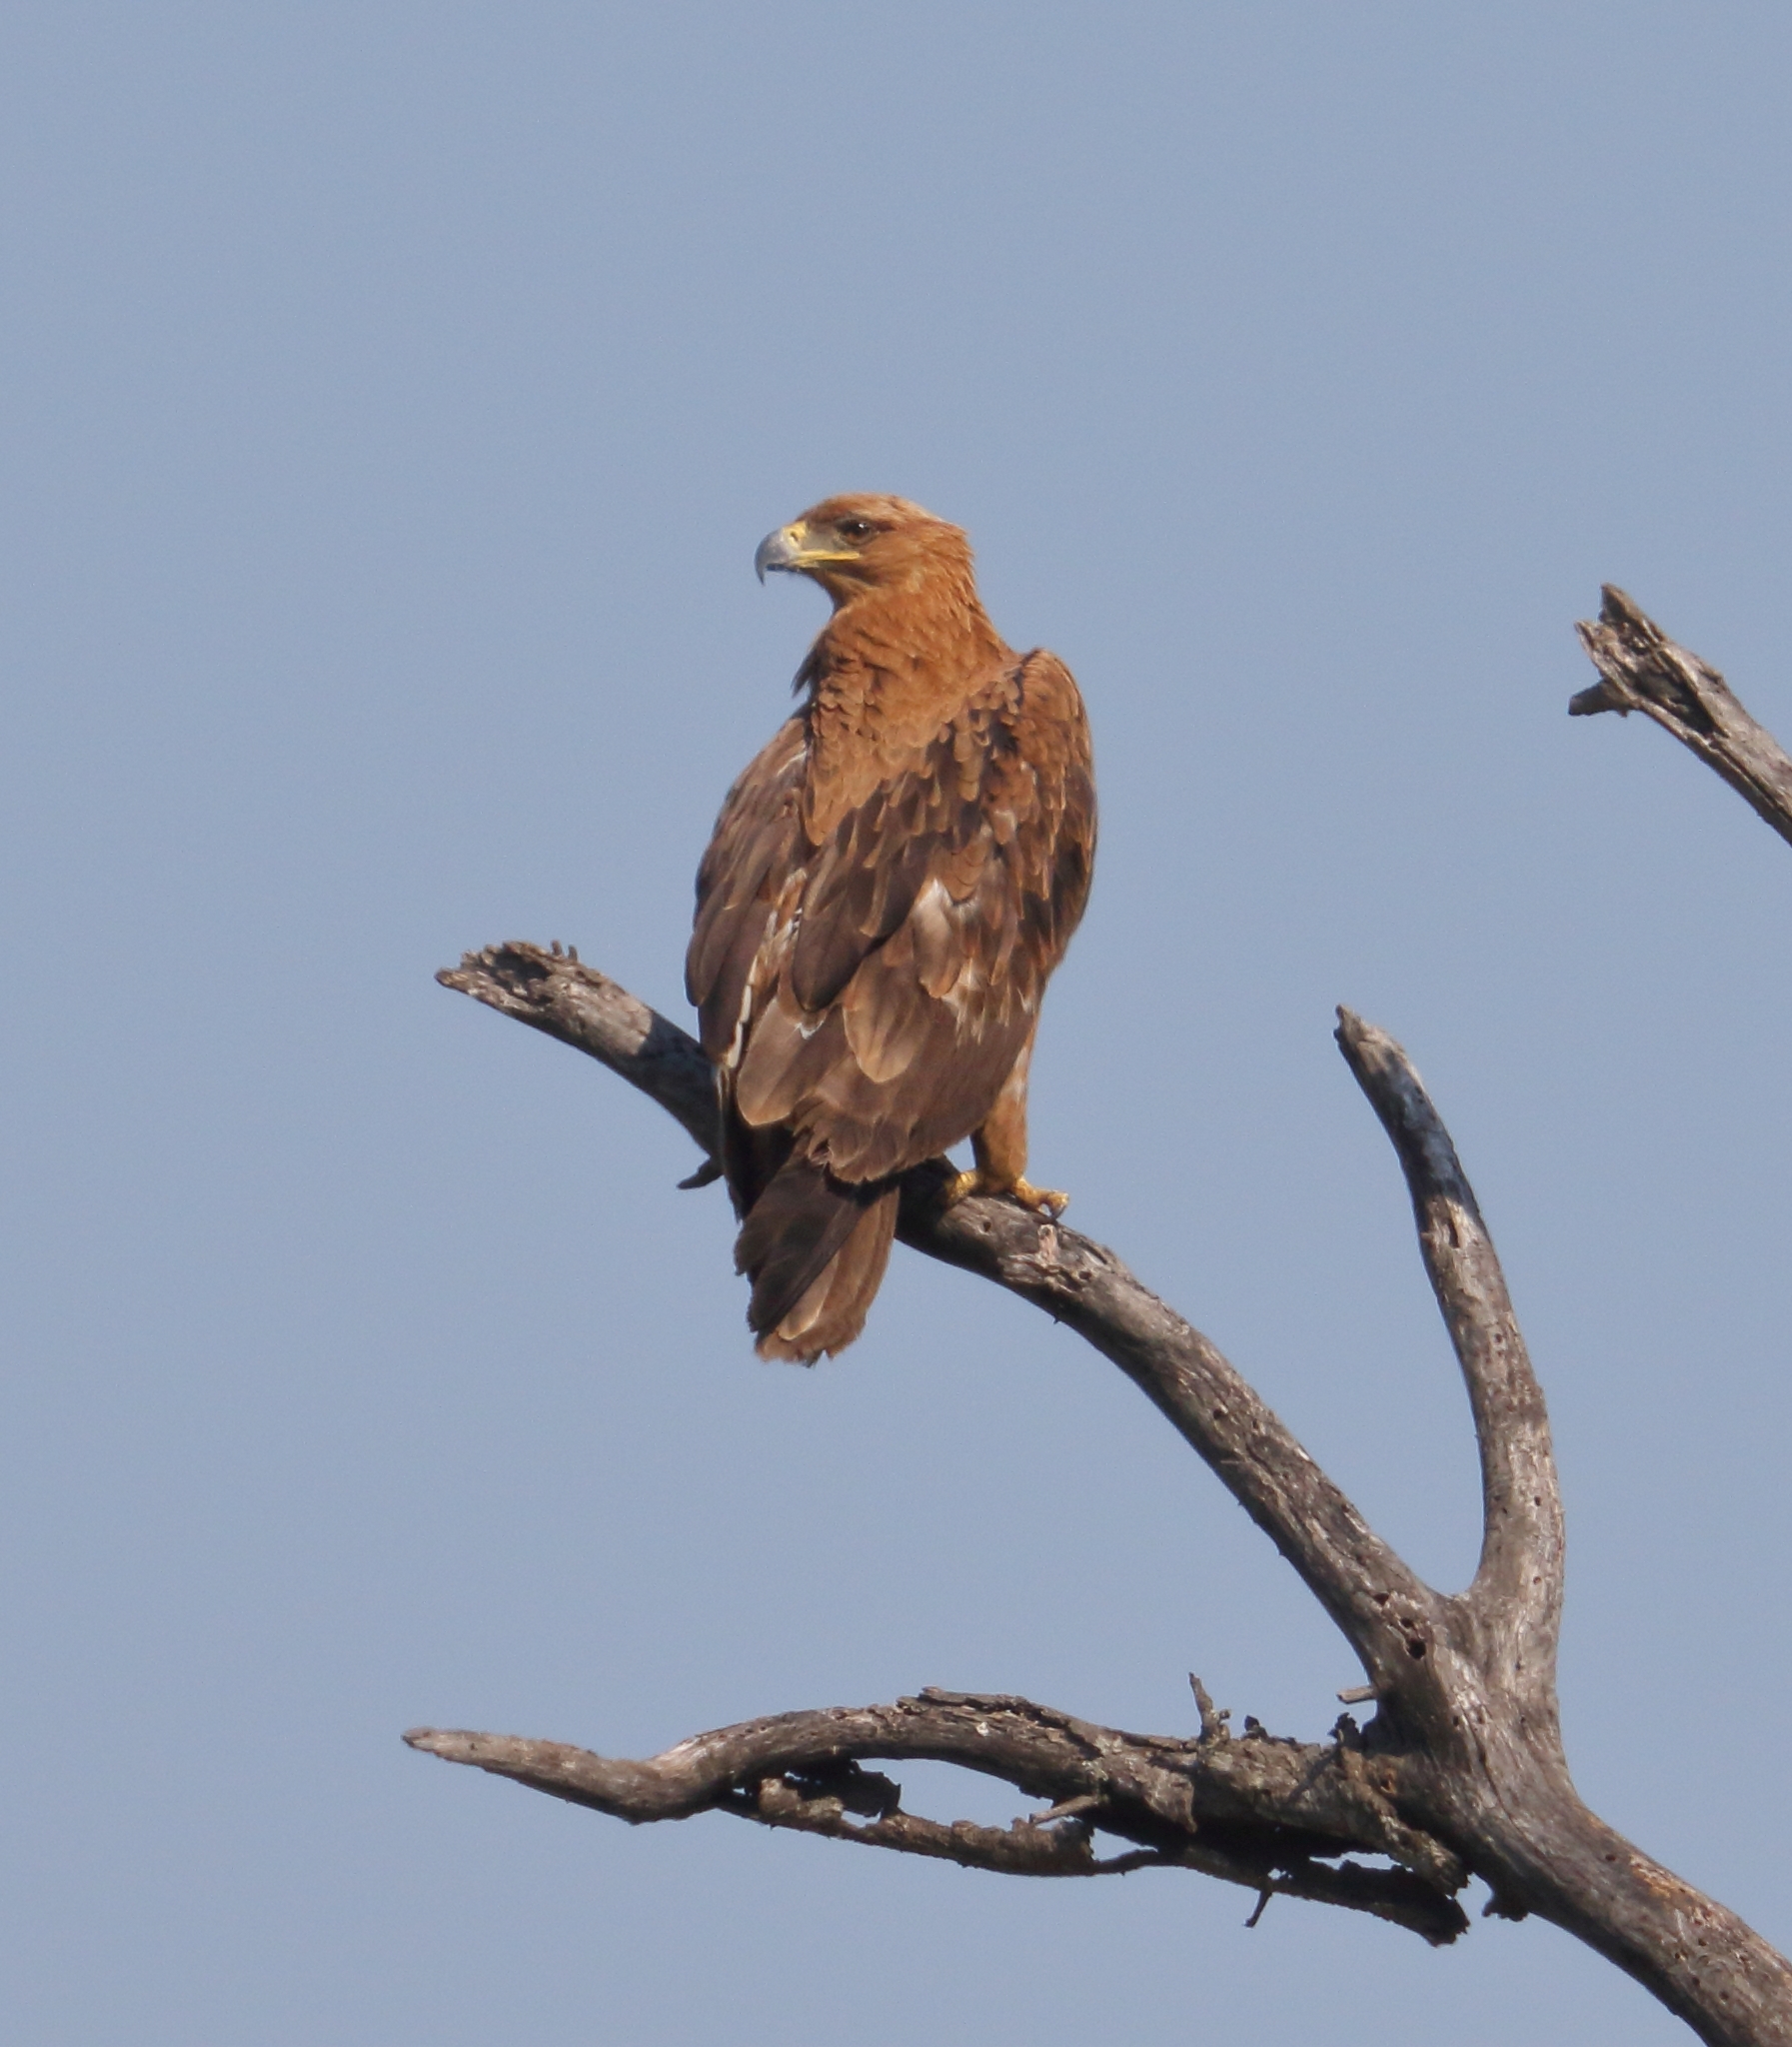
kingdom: Animalia
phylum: Chordata
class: Aves
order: Accipitriformes
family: Accipitridae
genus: Aquila
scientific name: Aquila rapax
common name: Tawny eagle
